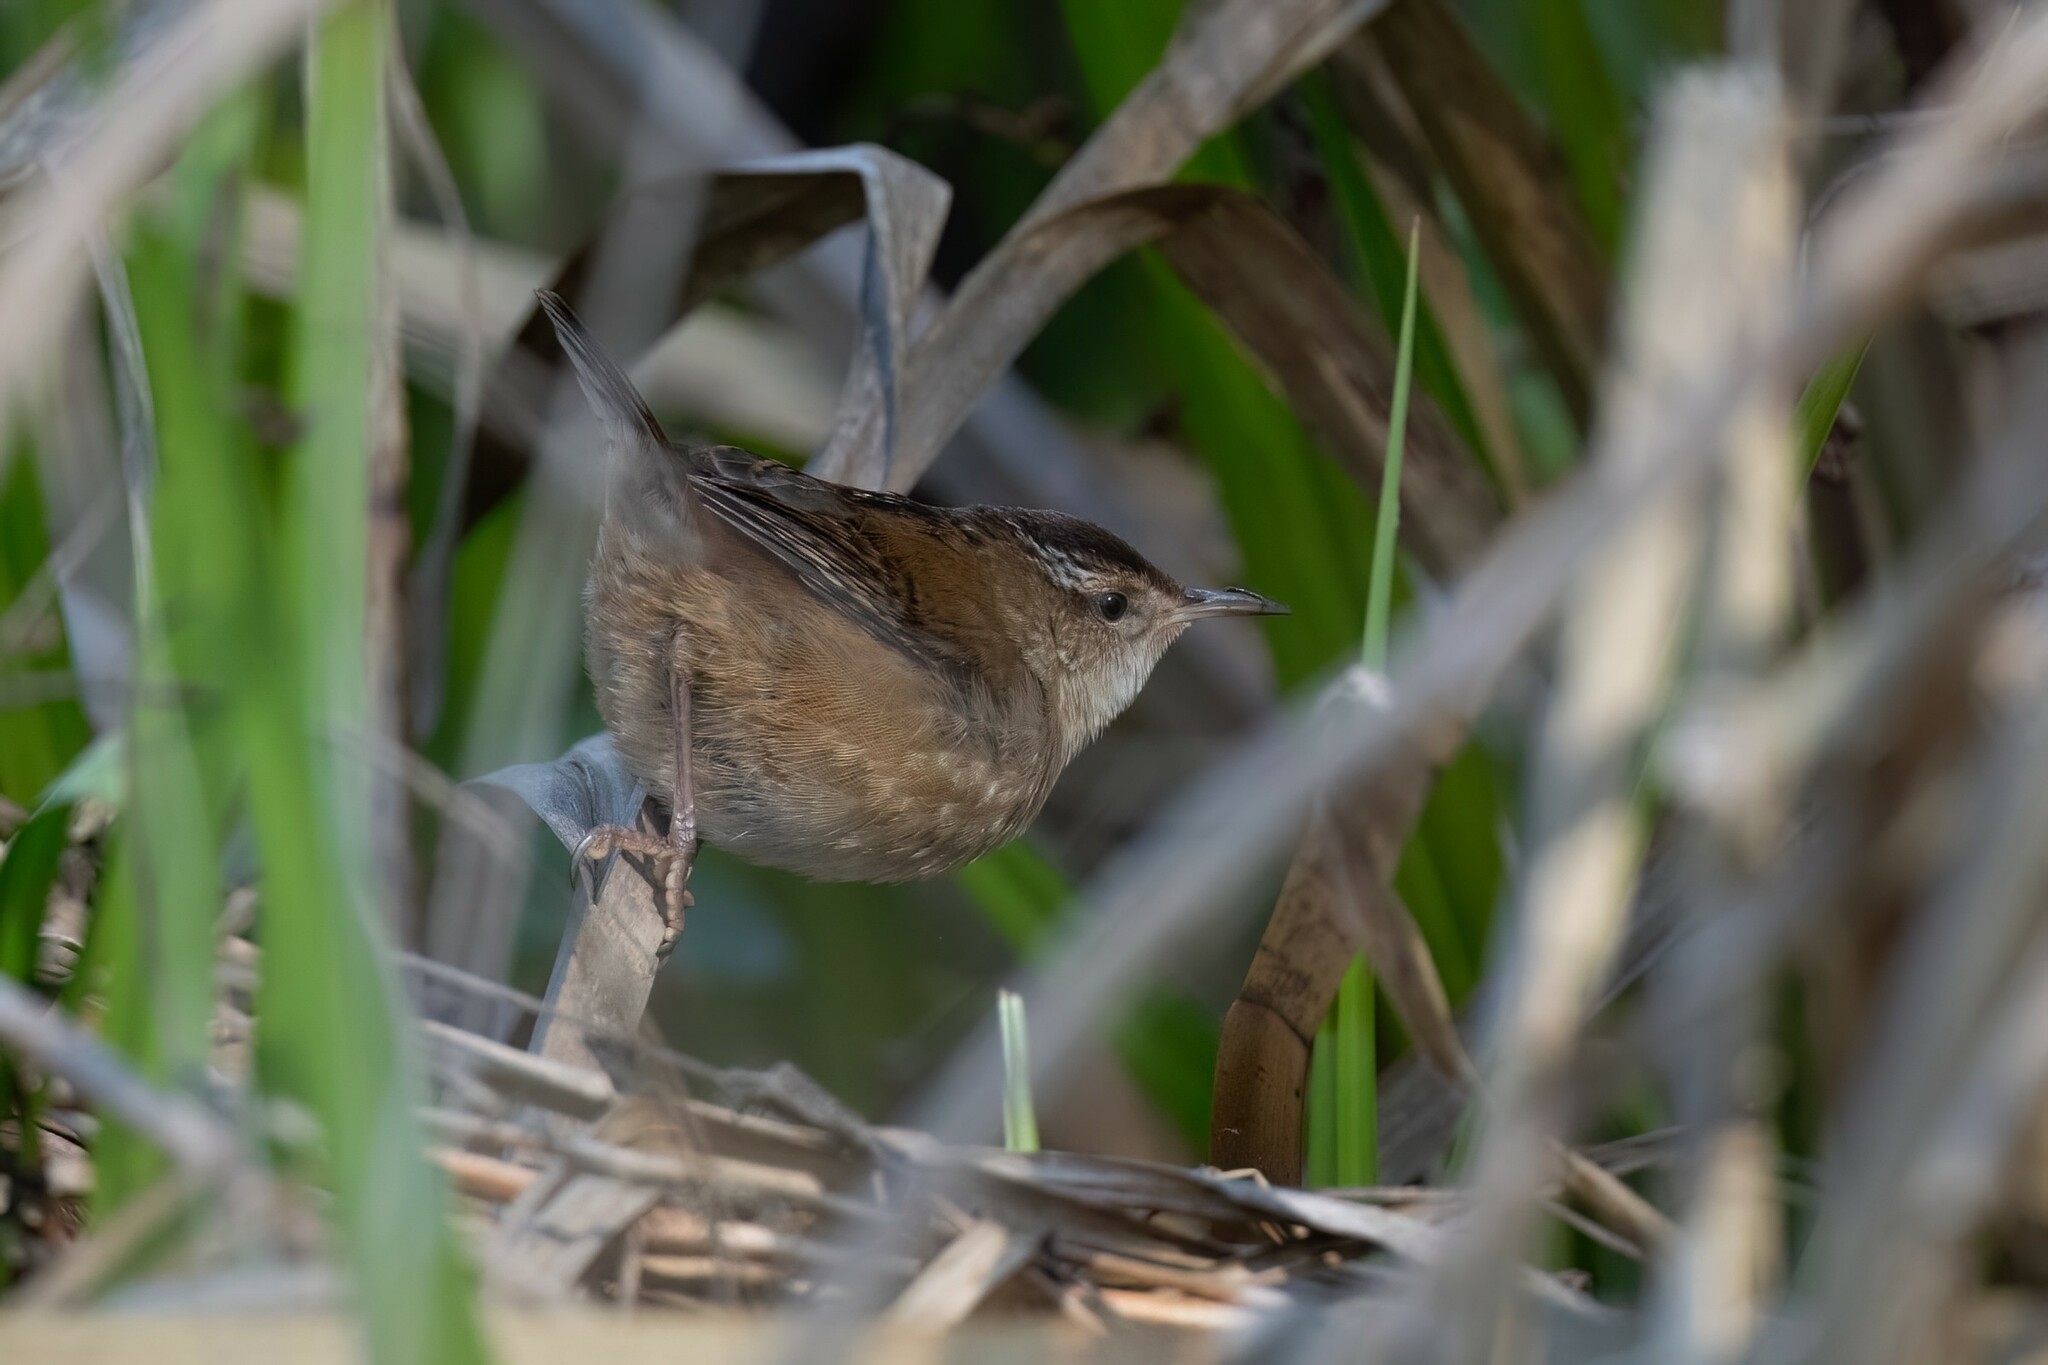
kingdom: Animalia
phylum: Chordata
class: Aves
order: Passeriformes
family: Troglodytidae
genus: Cistothorus
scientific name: Cistothorus palustris
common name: Marsh wren
